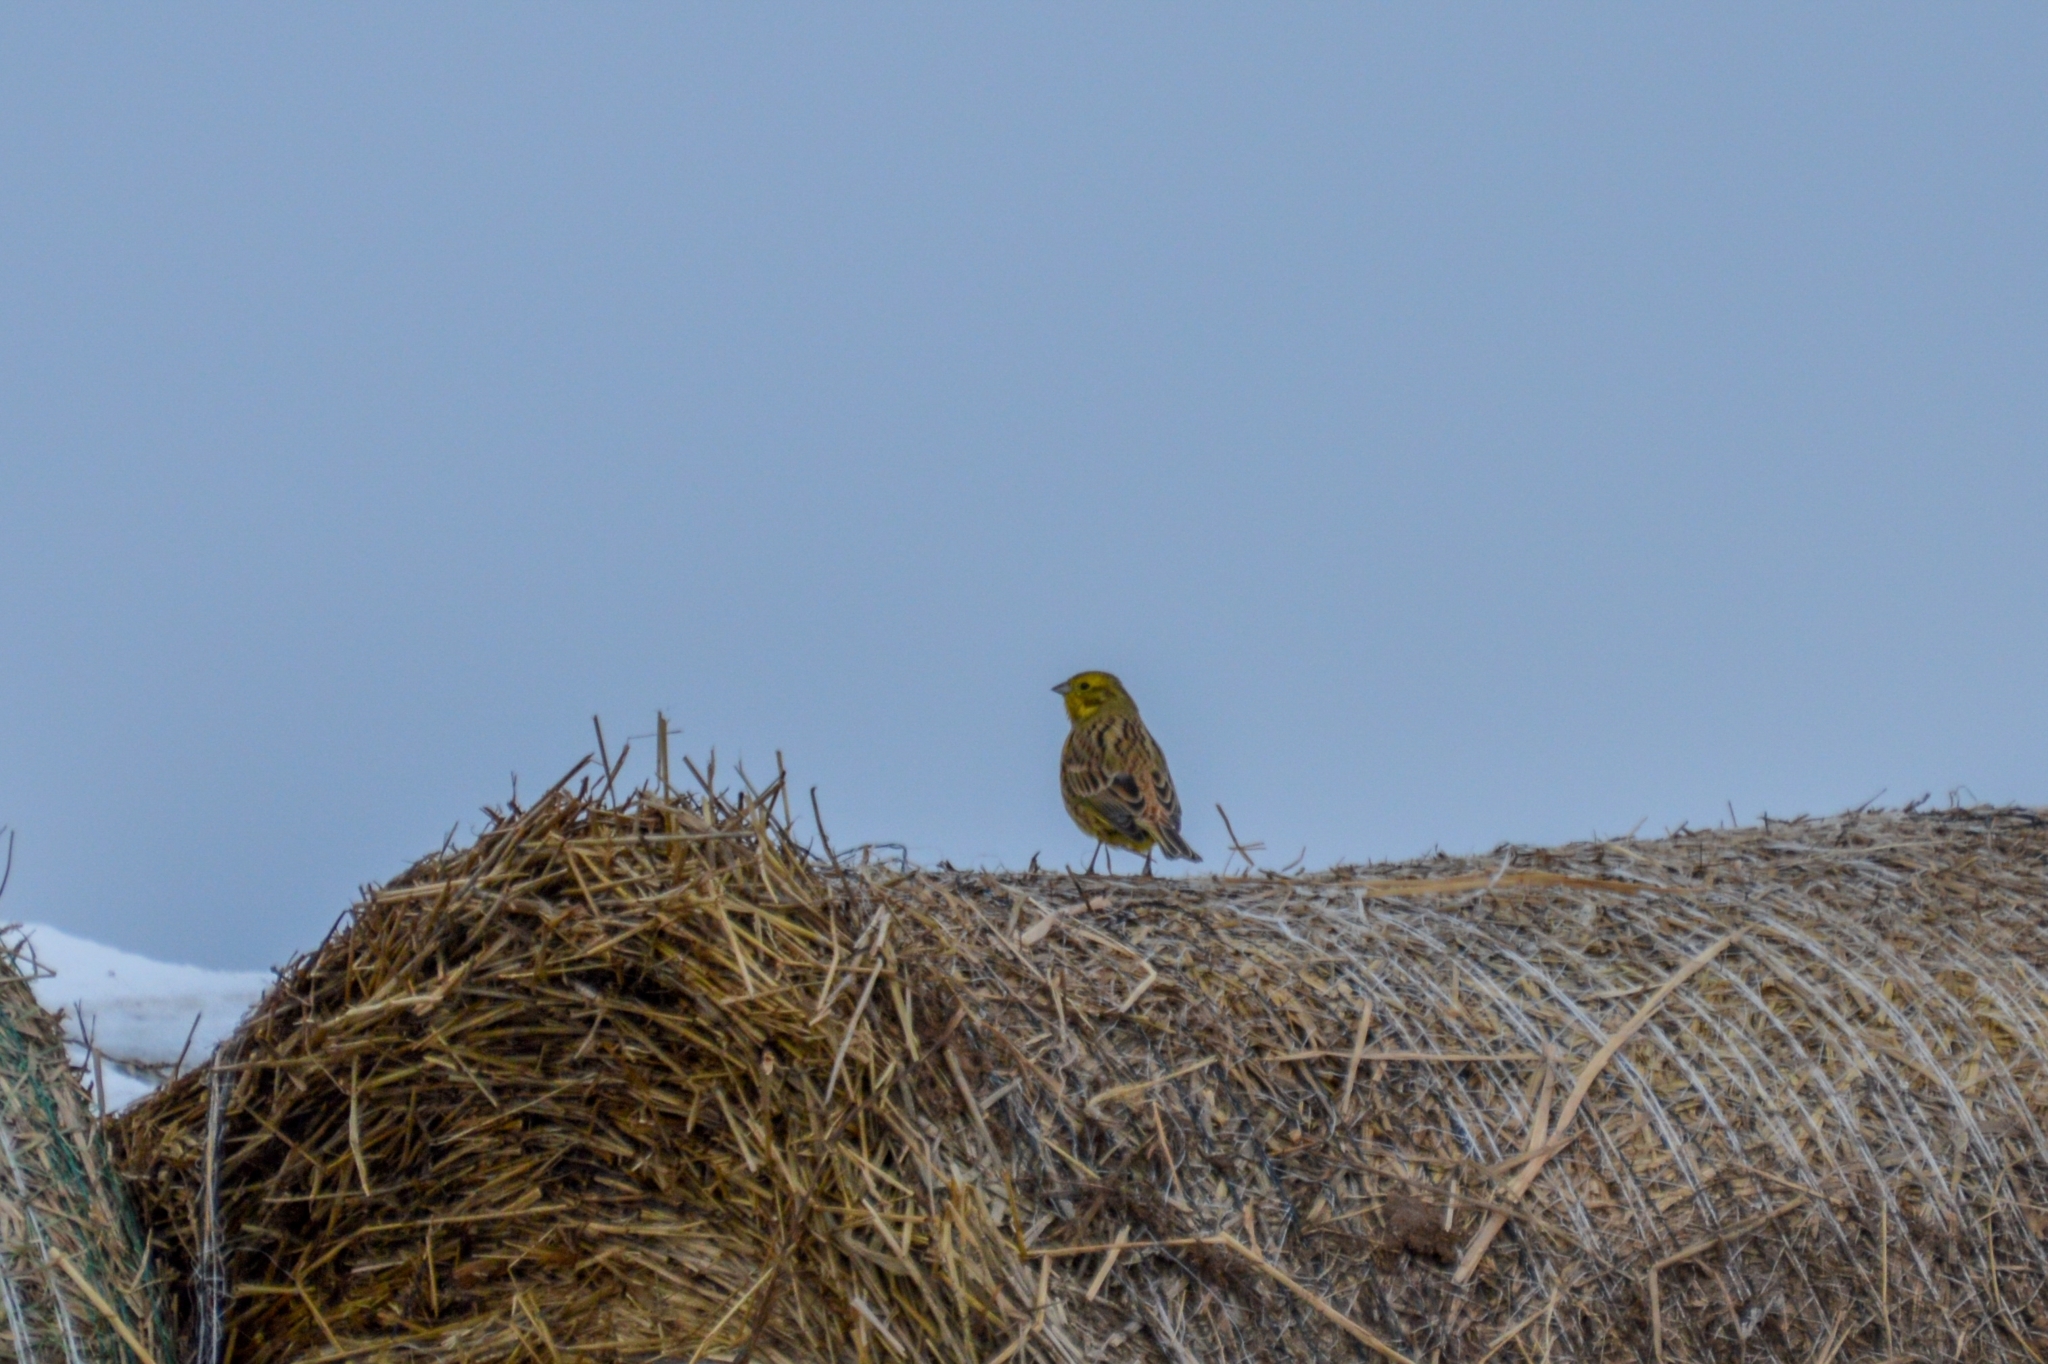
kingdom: Animalia
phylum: Chordata
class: Aves
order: Passeriformes
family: Emberizidae
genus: Emberiza
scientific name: Emberiza citrinella
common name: Yellowhammer
